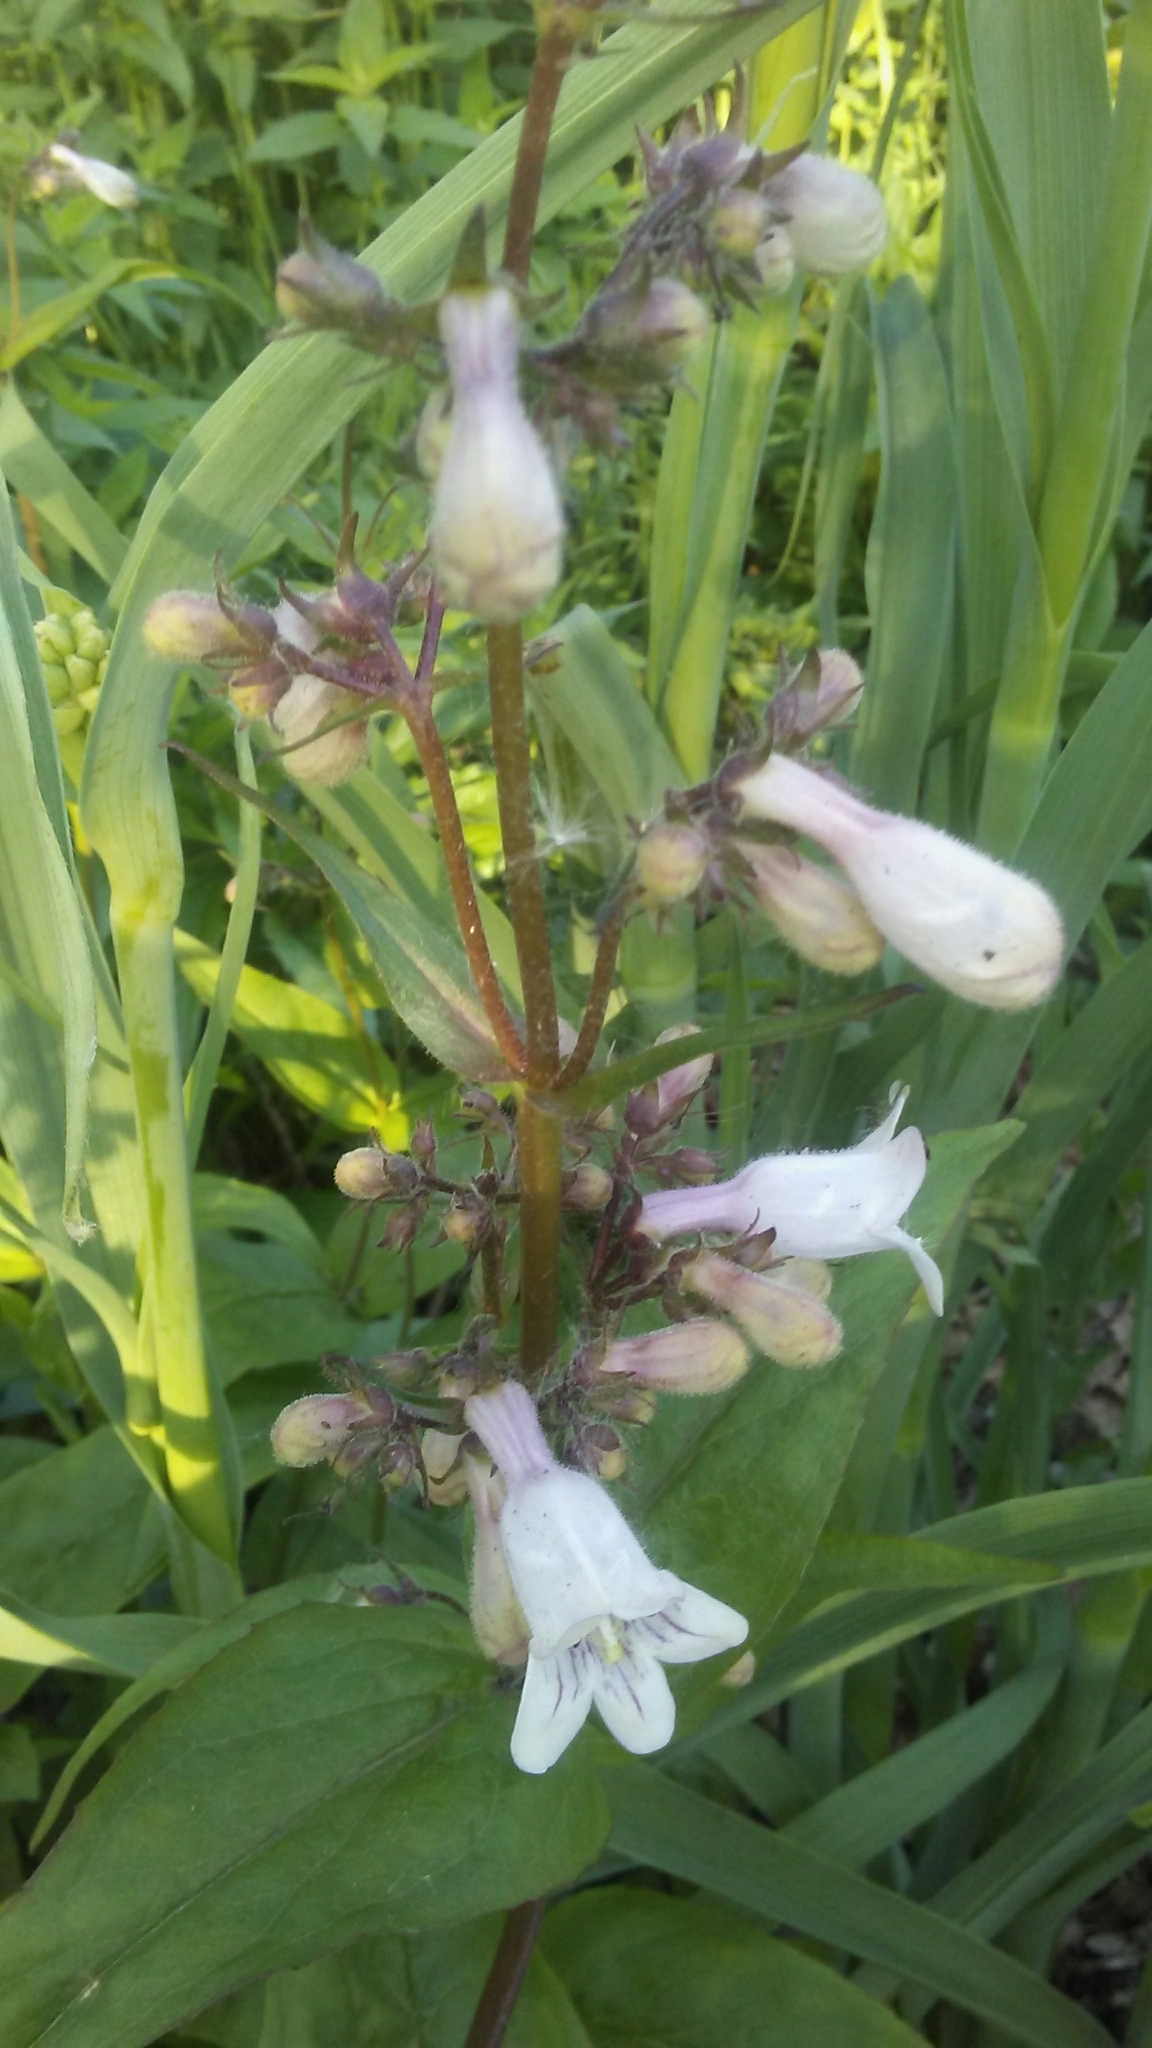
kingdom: Plantae
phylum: Tracheophyta
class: Magnoliopsida
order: Lamiales
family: Plantaginaceae
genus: Penstemon
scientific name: Penstemon digitalis
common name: Foxglove beardtongue
